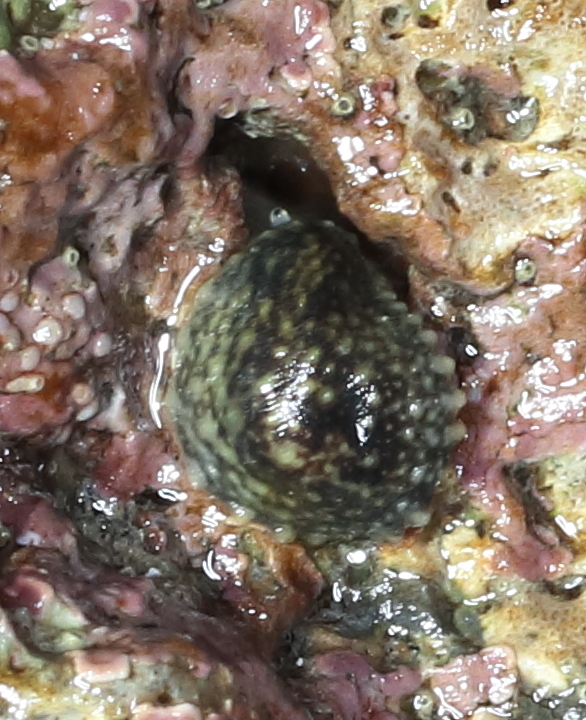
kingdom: Animalia
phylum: Mollusca
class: Gastropoda
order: Systellommatophora
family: Onchidiidae
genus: Onchidella
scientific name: Onchidella carpenteri
